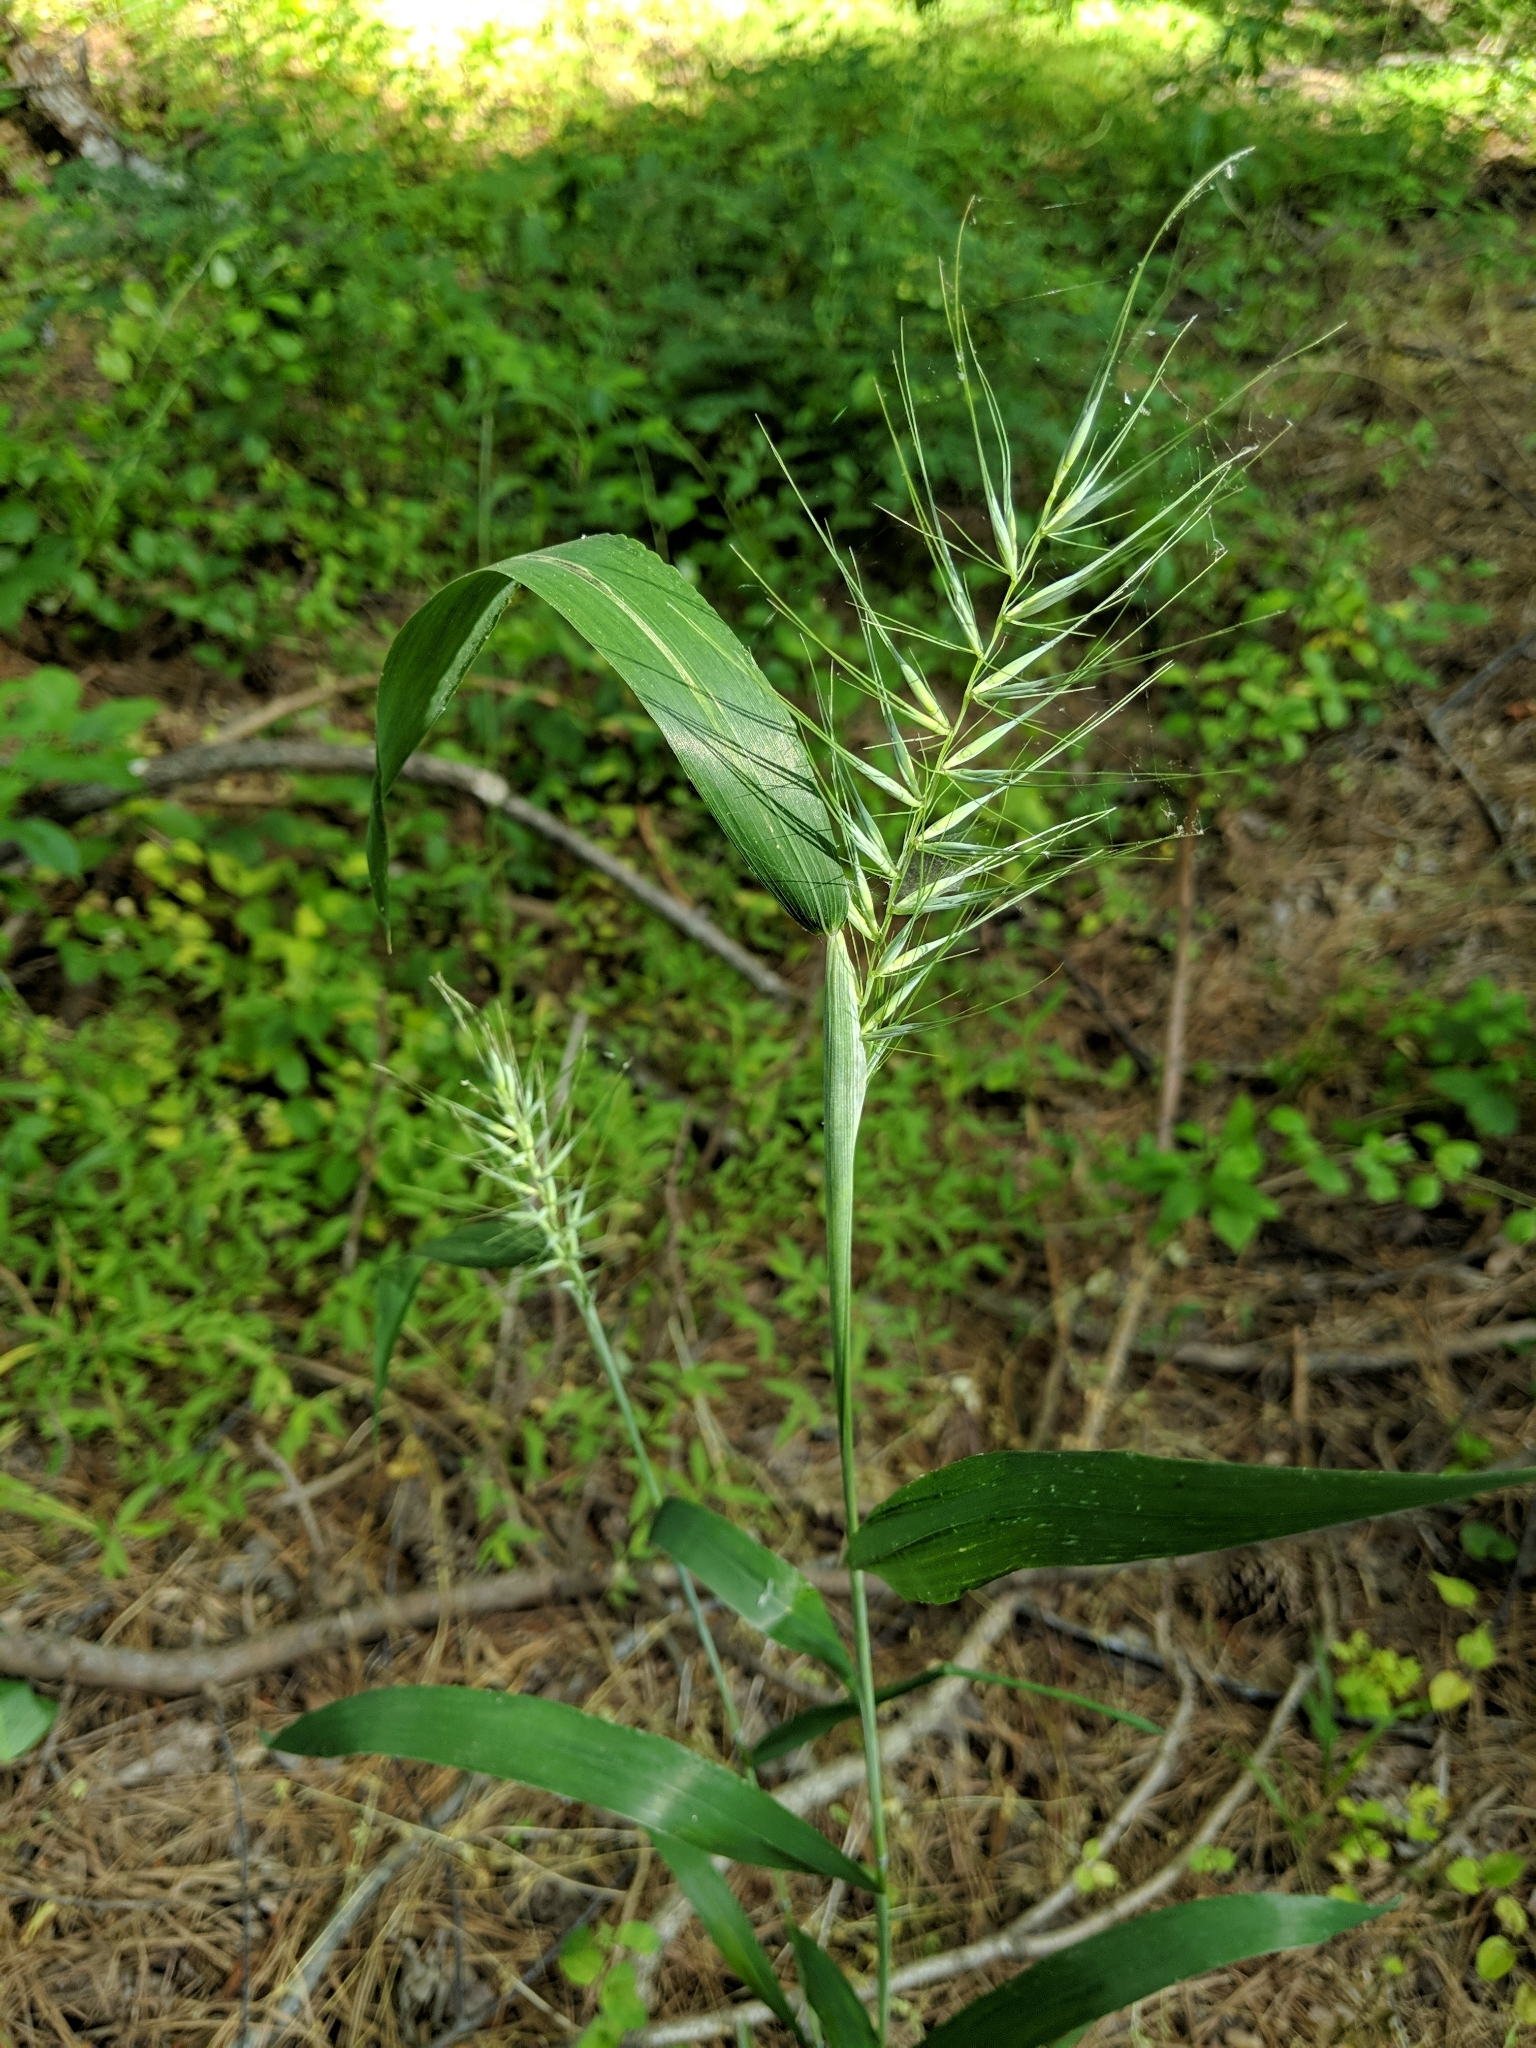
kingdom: Plantae
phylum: Tracheophyta
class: Liliopsida
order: Poales
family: Poaceae
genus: Elymus
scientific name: Elymus hystrix
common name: Bottlebrush grass
